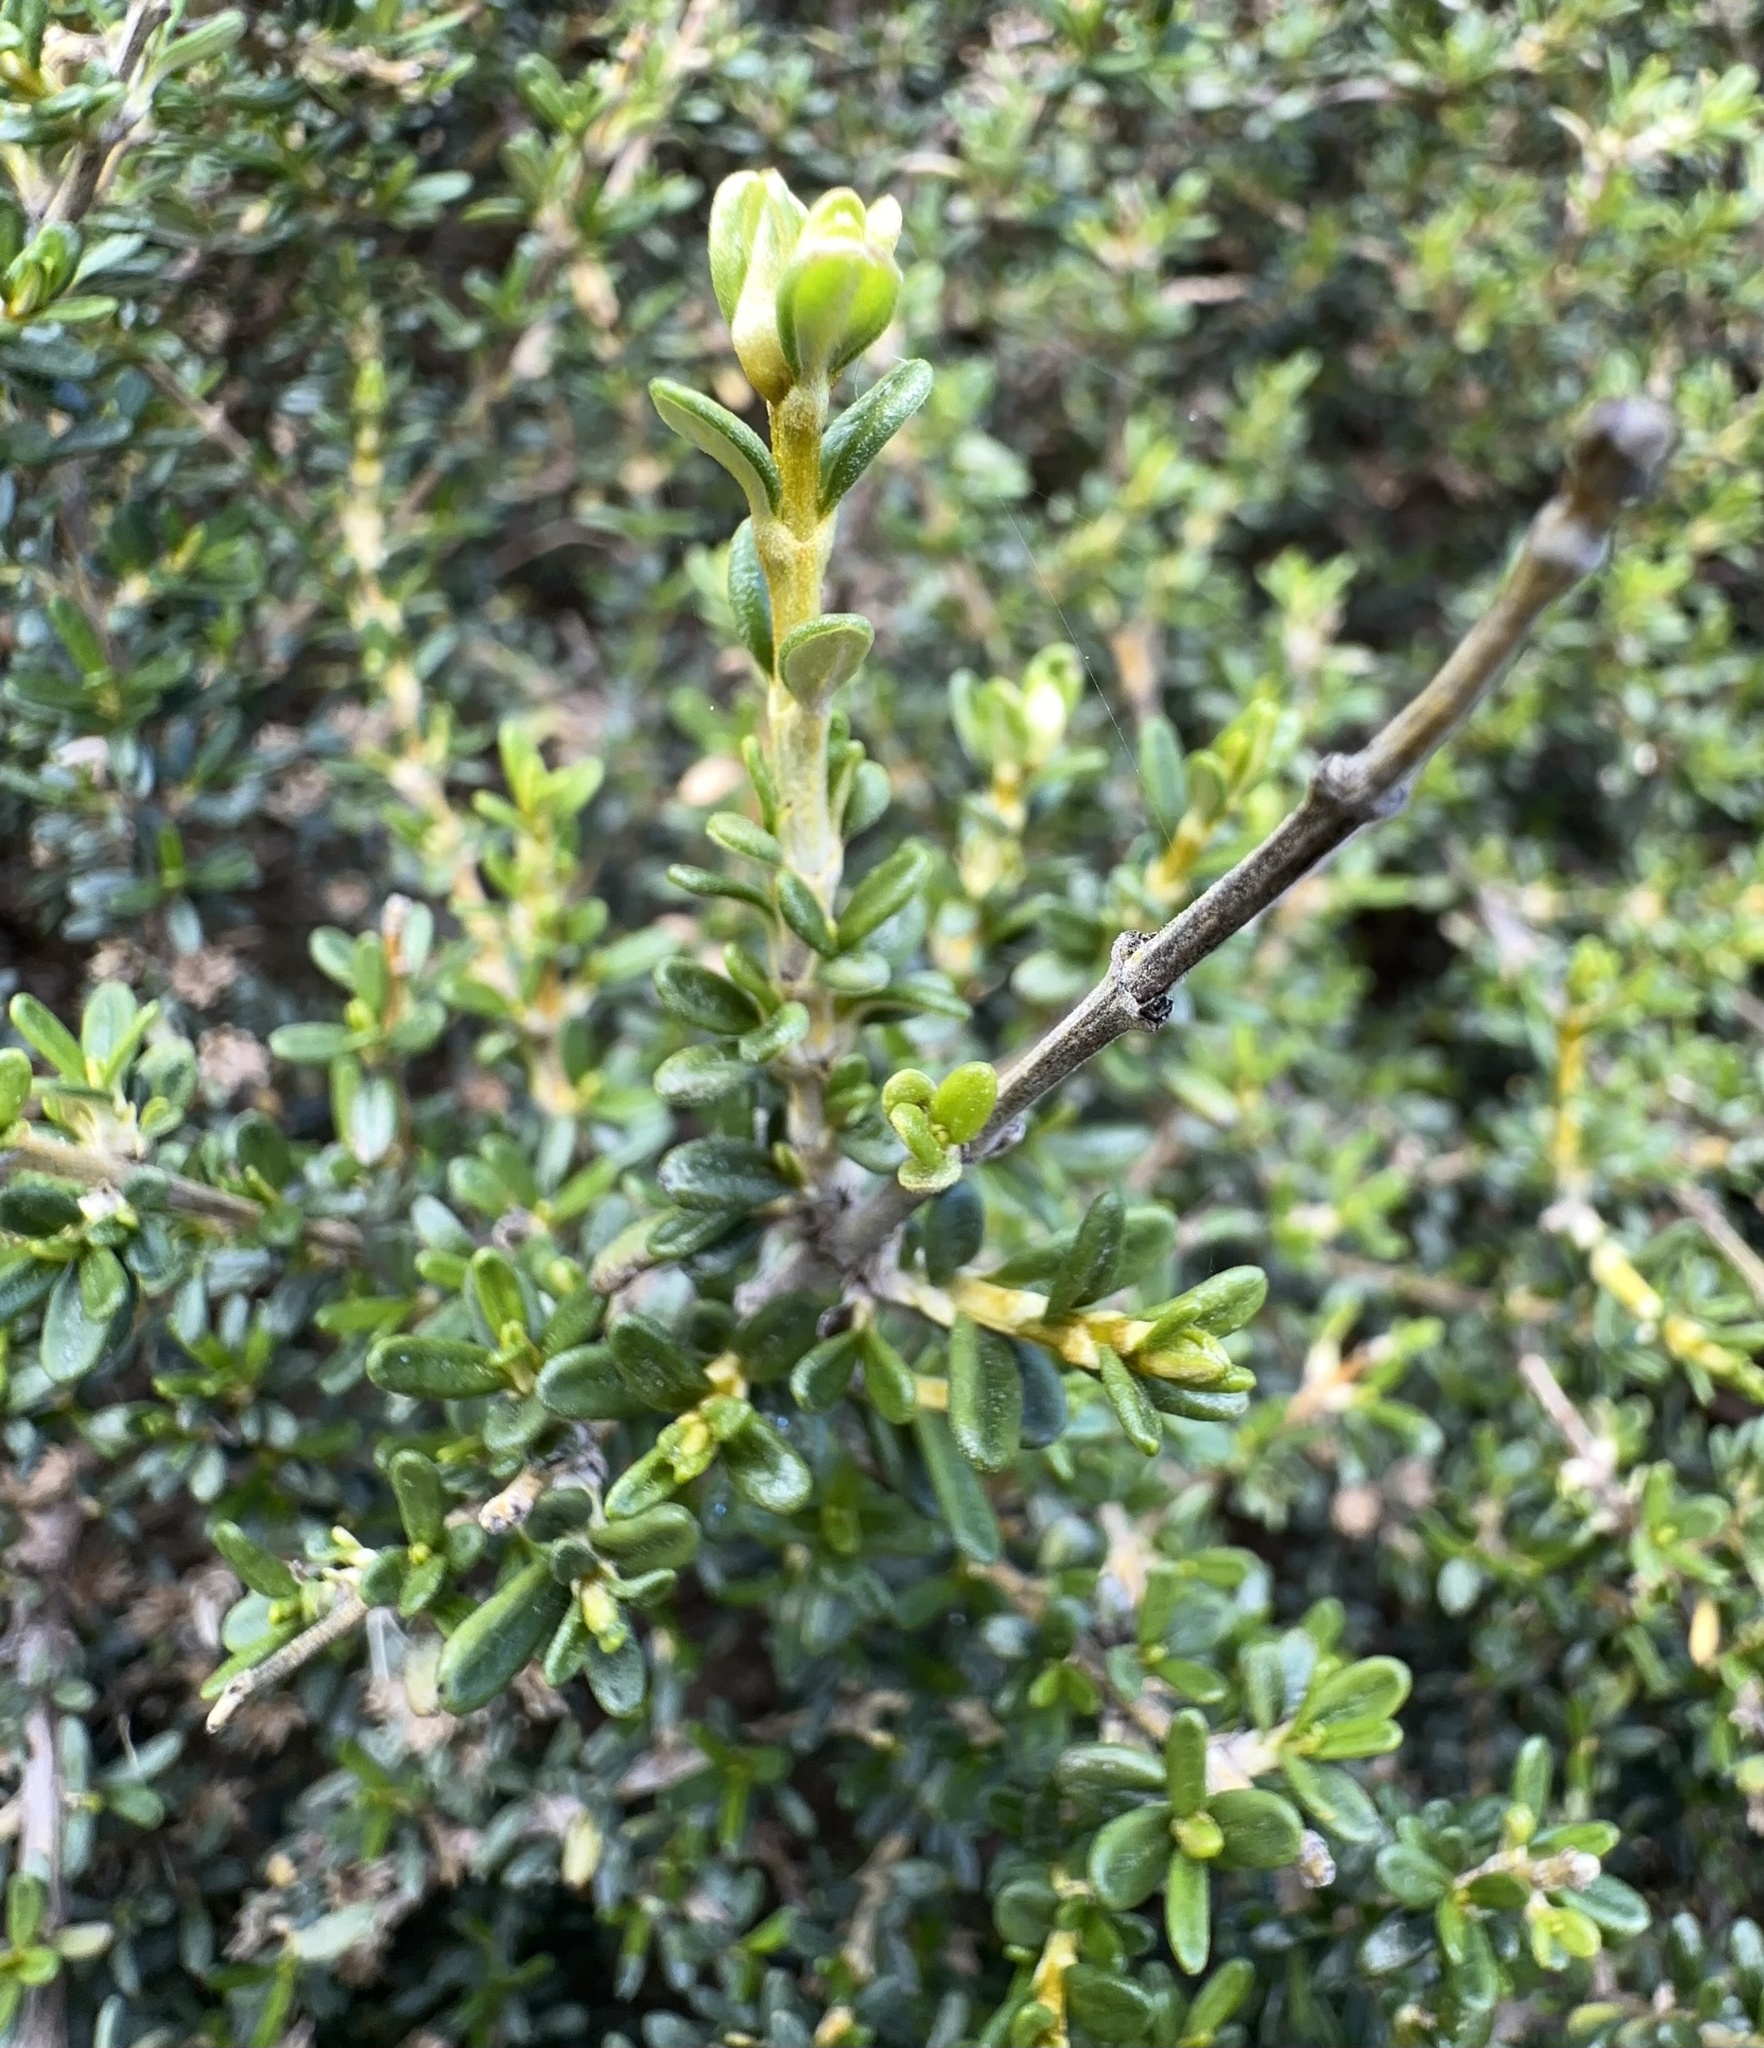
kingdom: Plantae
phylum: Tracheophyta
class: Magnoliopsida
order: Asterales
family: Asteraceae
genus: Olearia
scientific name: Olearia solandri
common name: Coastal daisybush
